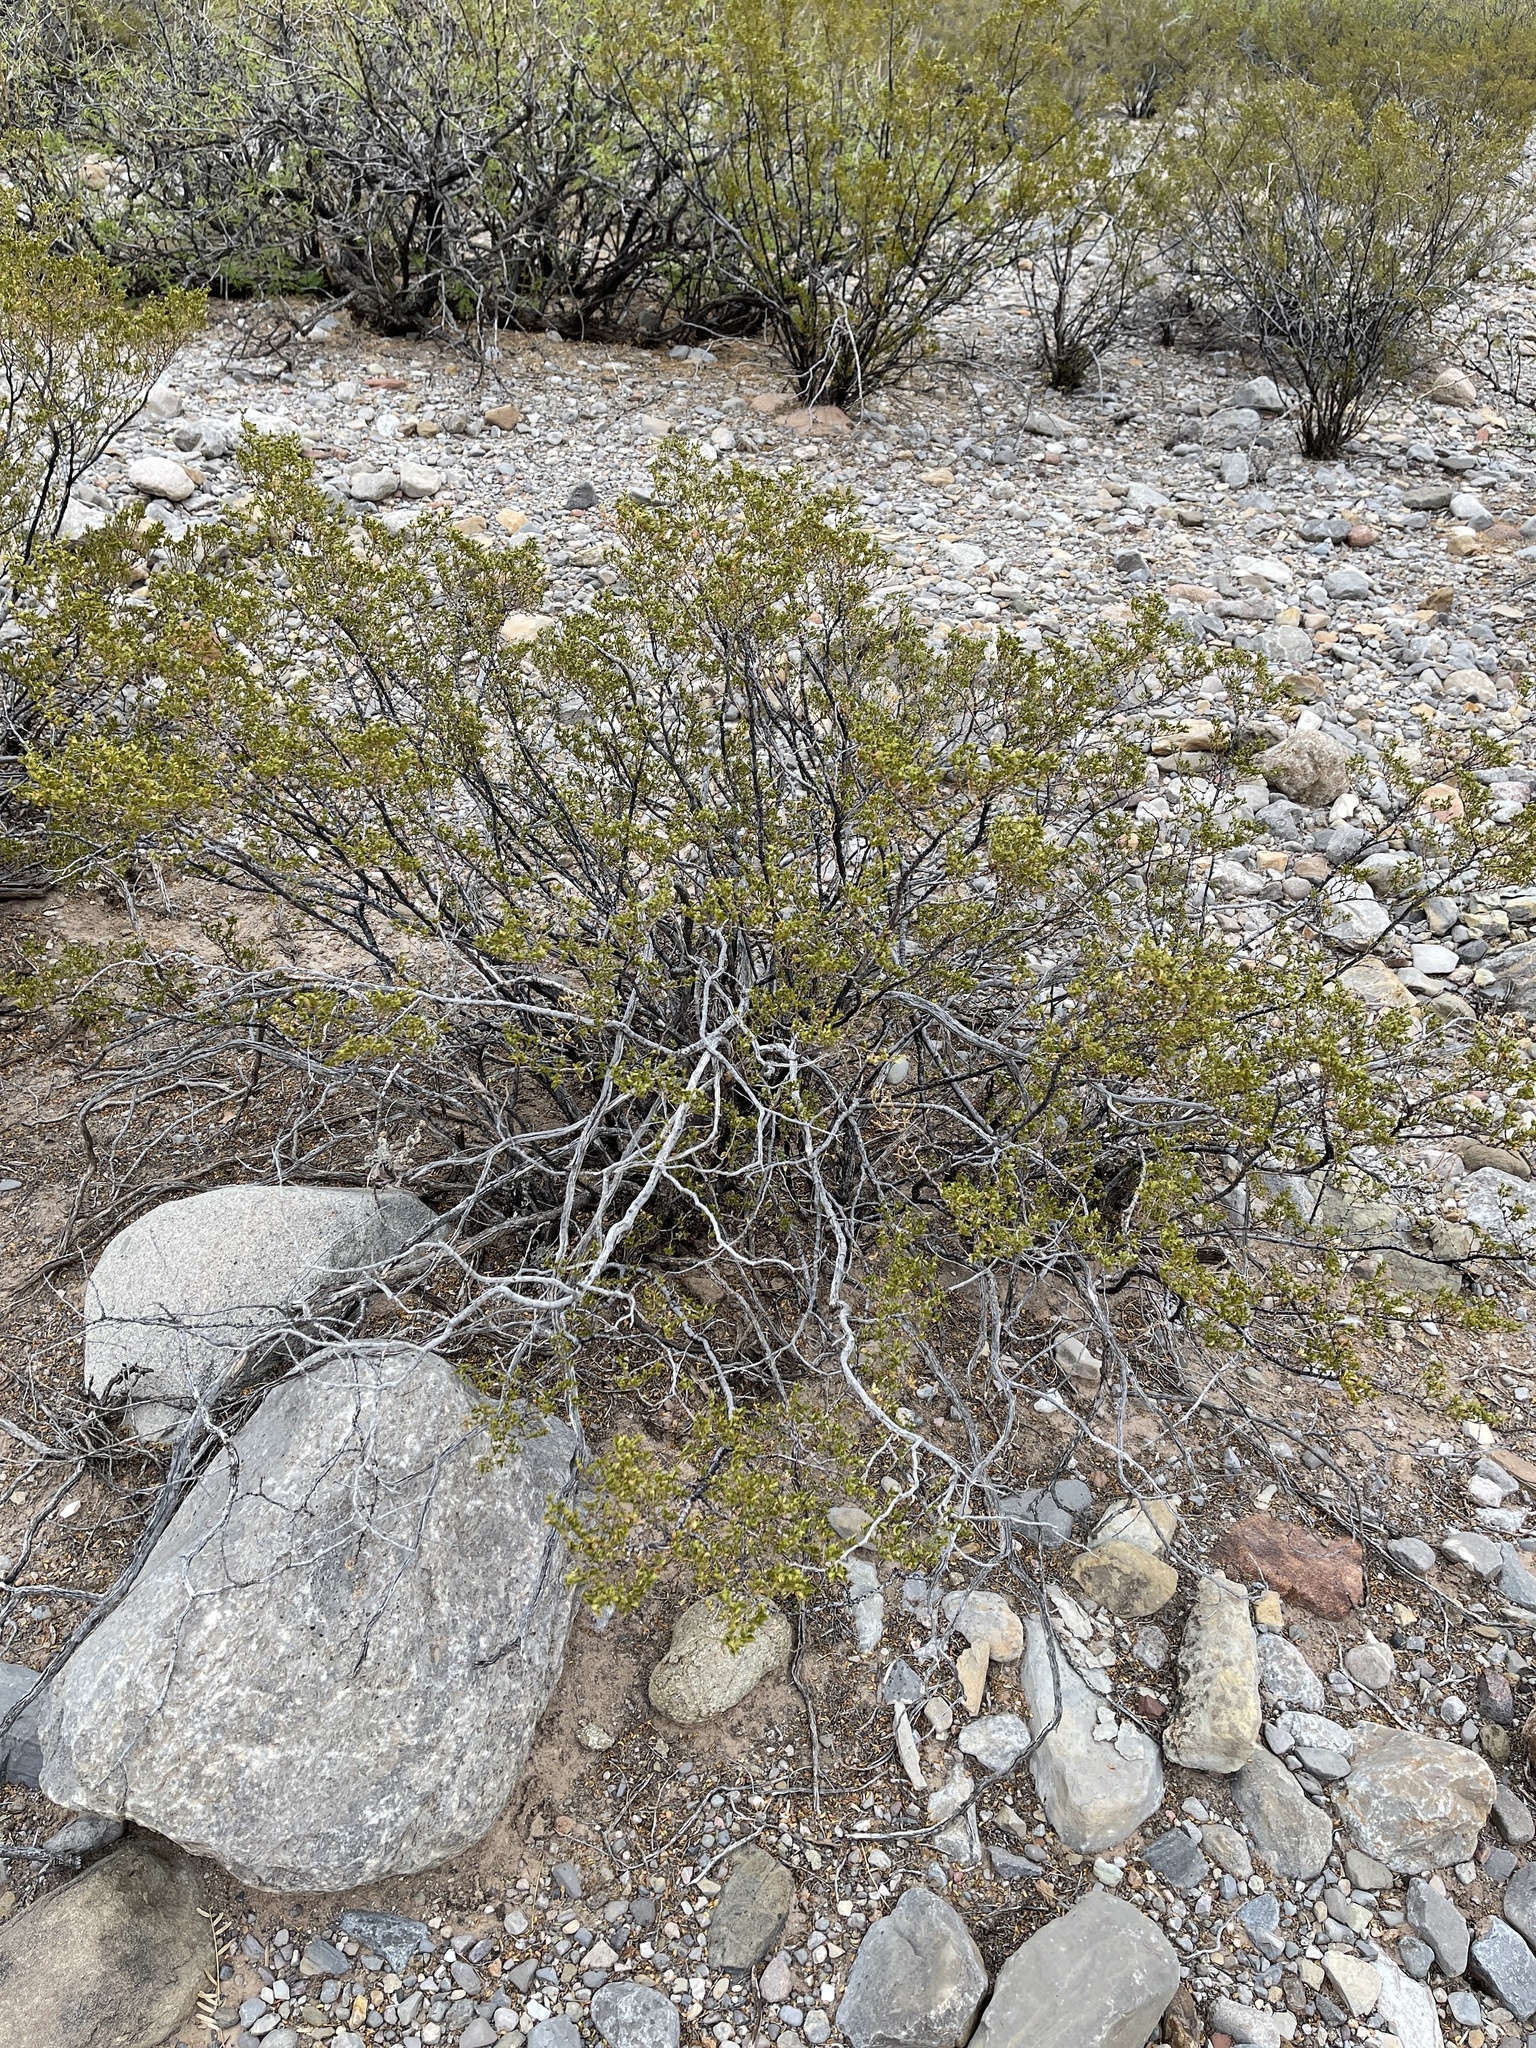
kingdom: Plantae
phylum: Tracheophyta
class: Magnoliopsida
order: Zygophyllales
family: Zygophyllaceae
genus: Larrea
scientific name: Larrea tridentata
